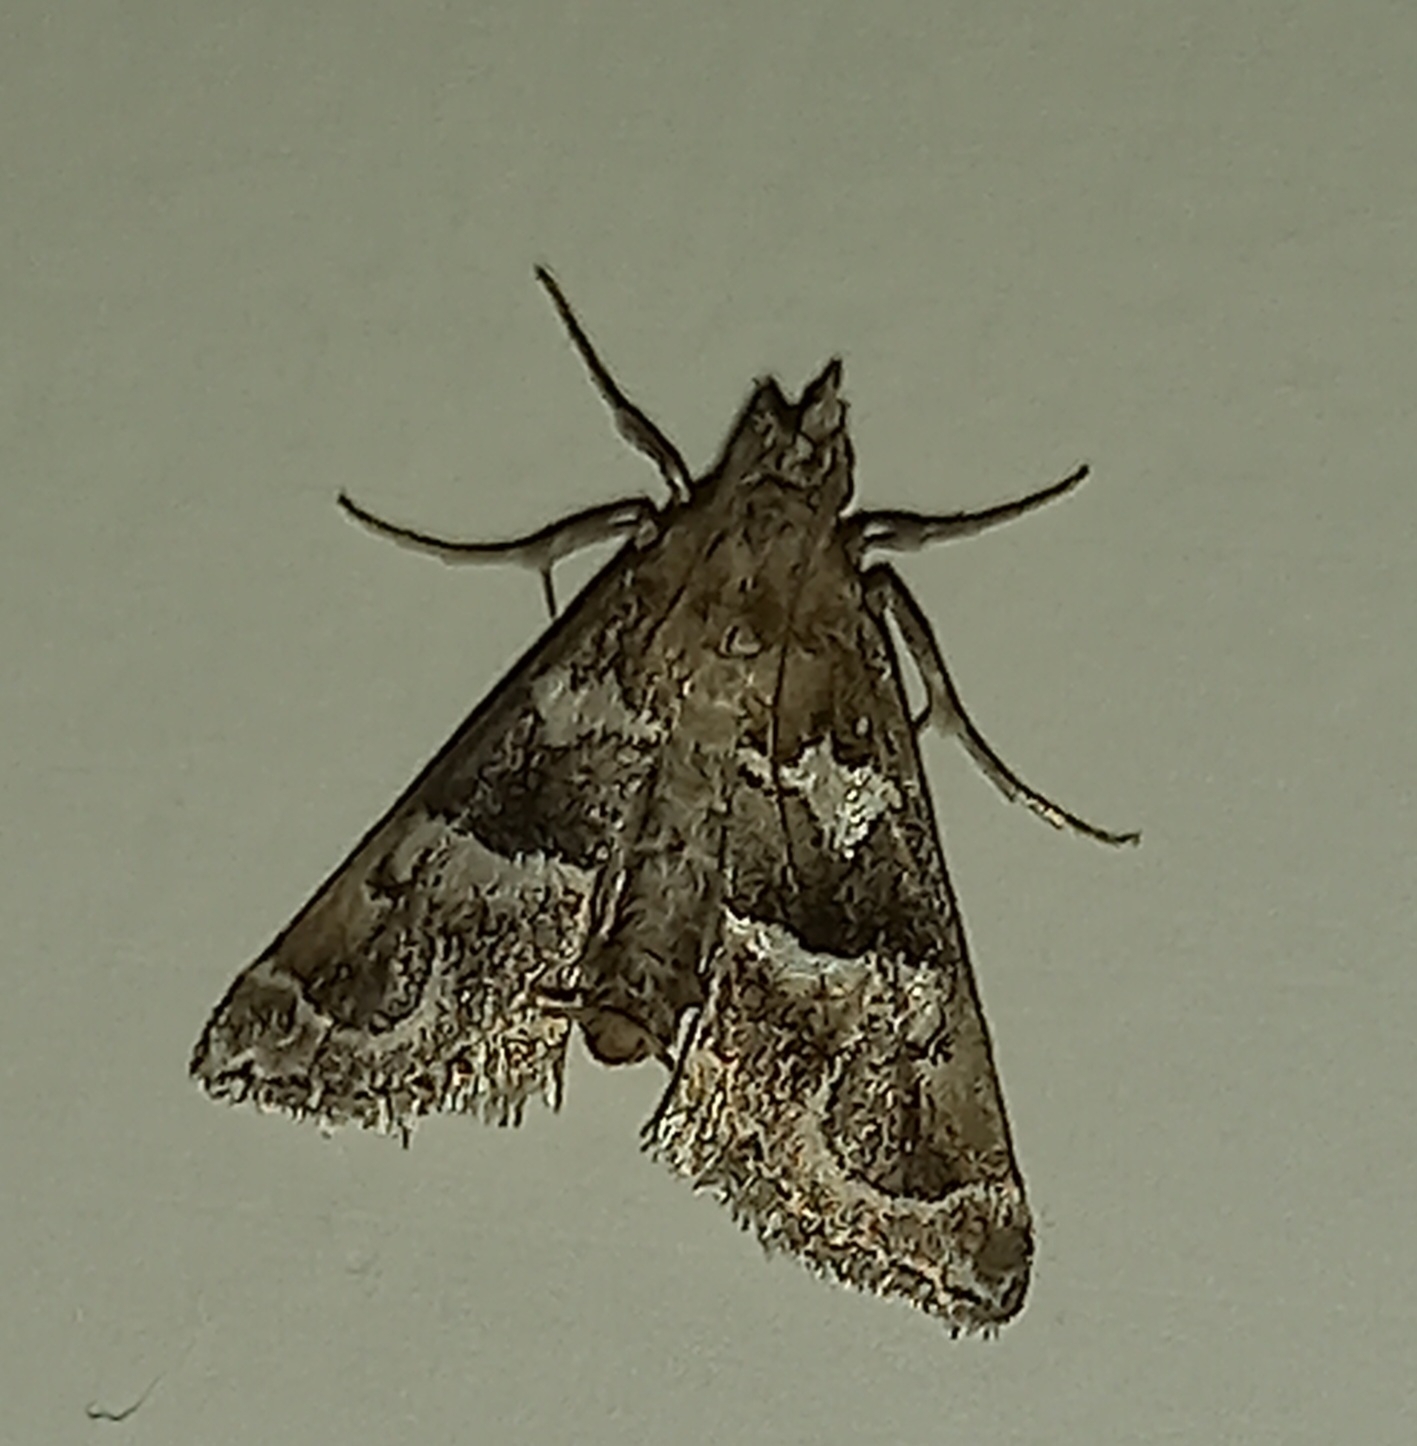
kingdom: Animalia
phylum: Arthropoda
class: Insecta
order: Lepidoptera
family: Pyralidae
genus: Hypotia
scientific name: Hypotia corticalis
